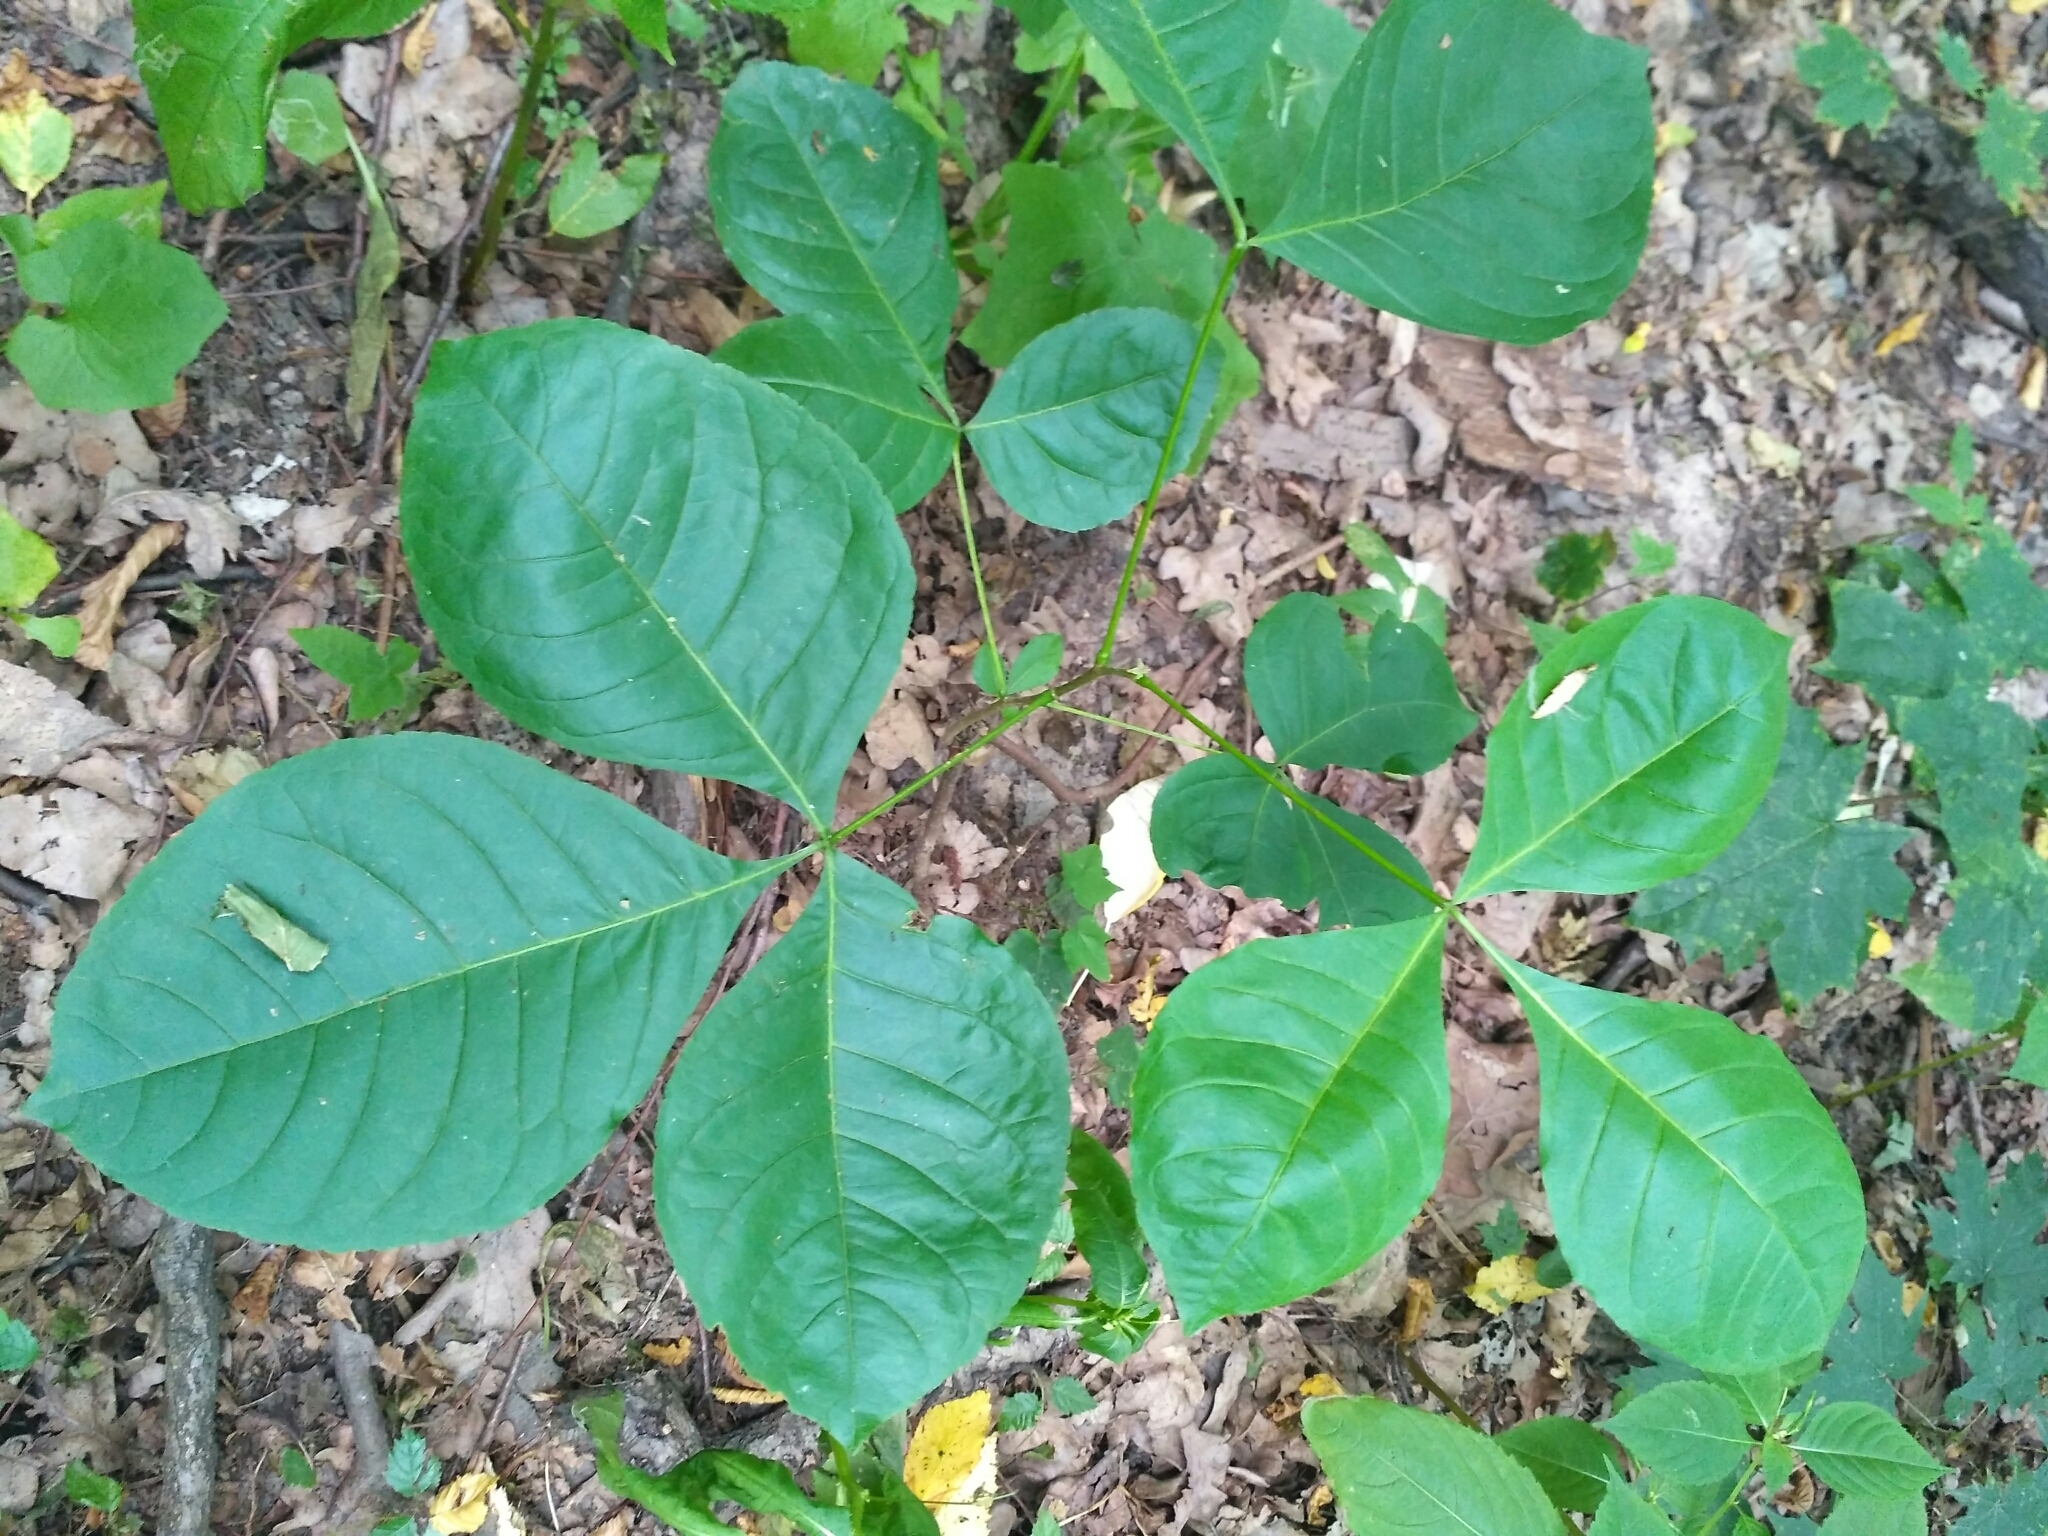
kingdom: Plantae
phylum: Tracheophyta
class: Magnoliopsida
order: Sapindales
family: Rutaceae
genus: Ptelea
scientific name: Ptelea trifoliata
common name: Common hop-tree
